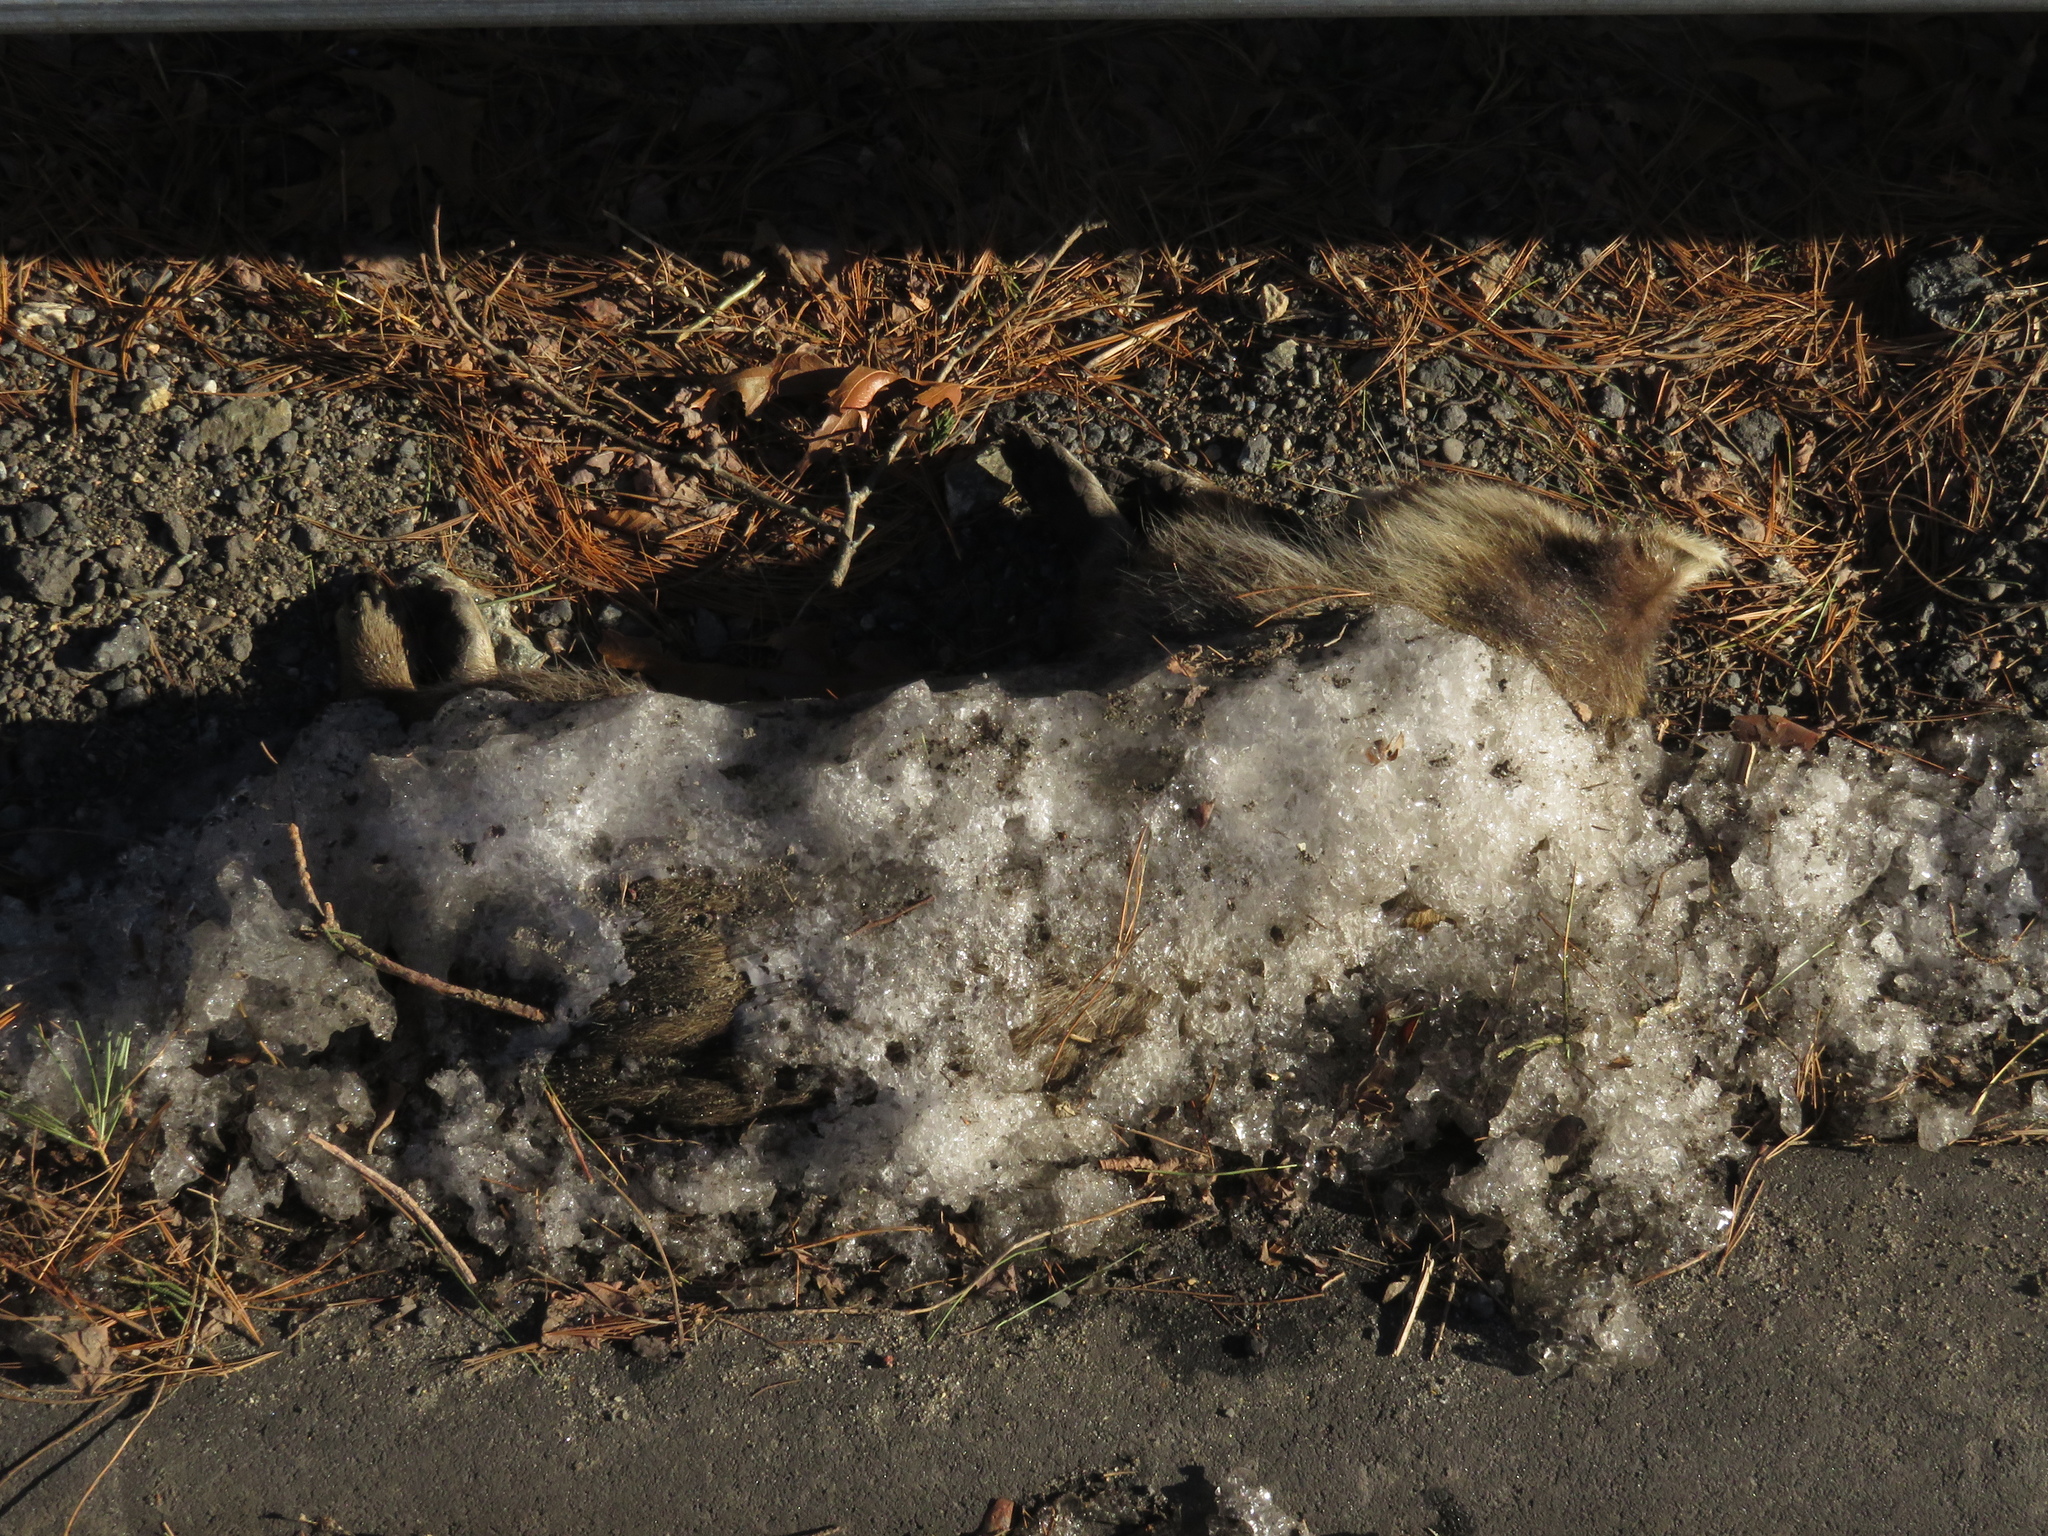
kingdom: Animalia
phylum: Chordata
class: Mammalia
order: Carnivora
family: Procyonidae
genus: Procyon
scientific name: Procyon lotor
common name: Raccoon
